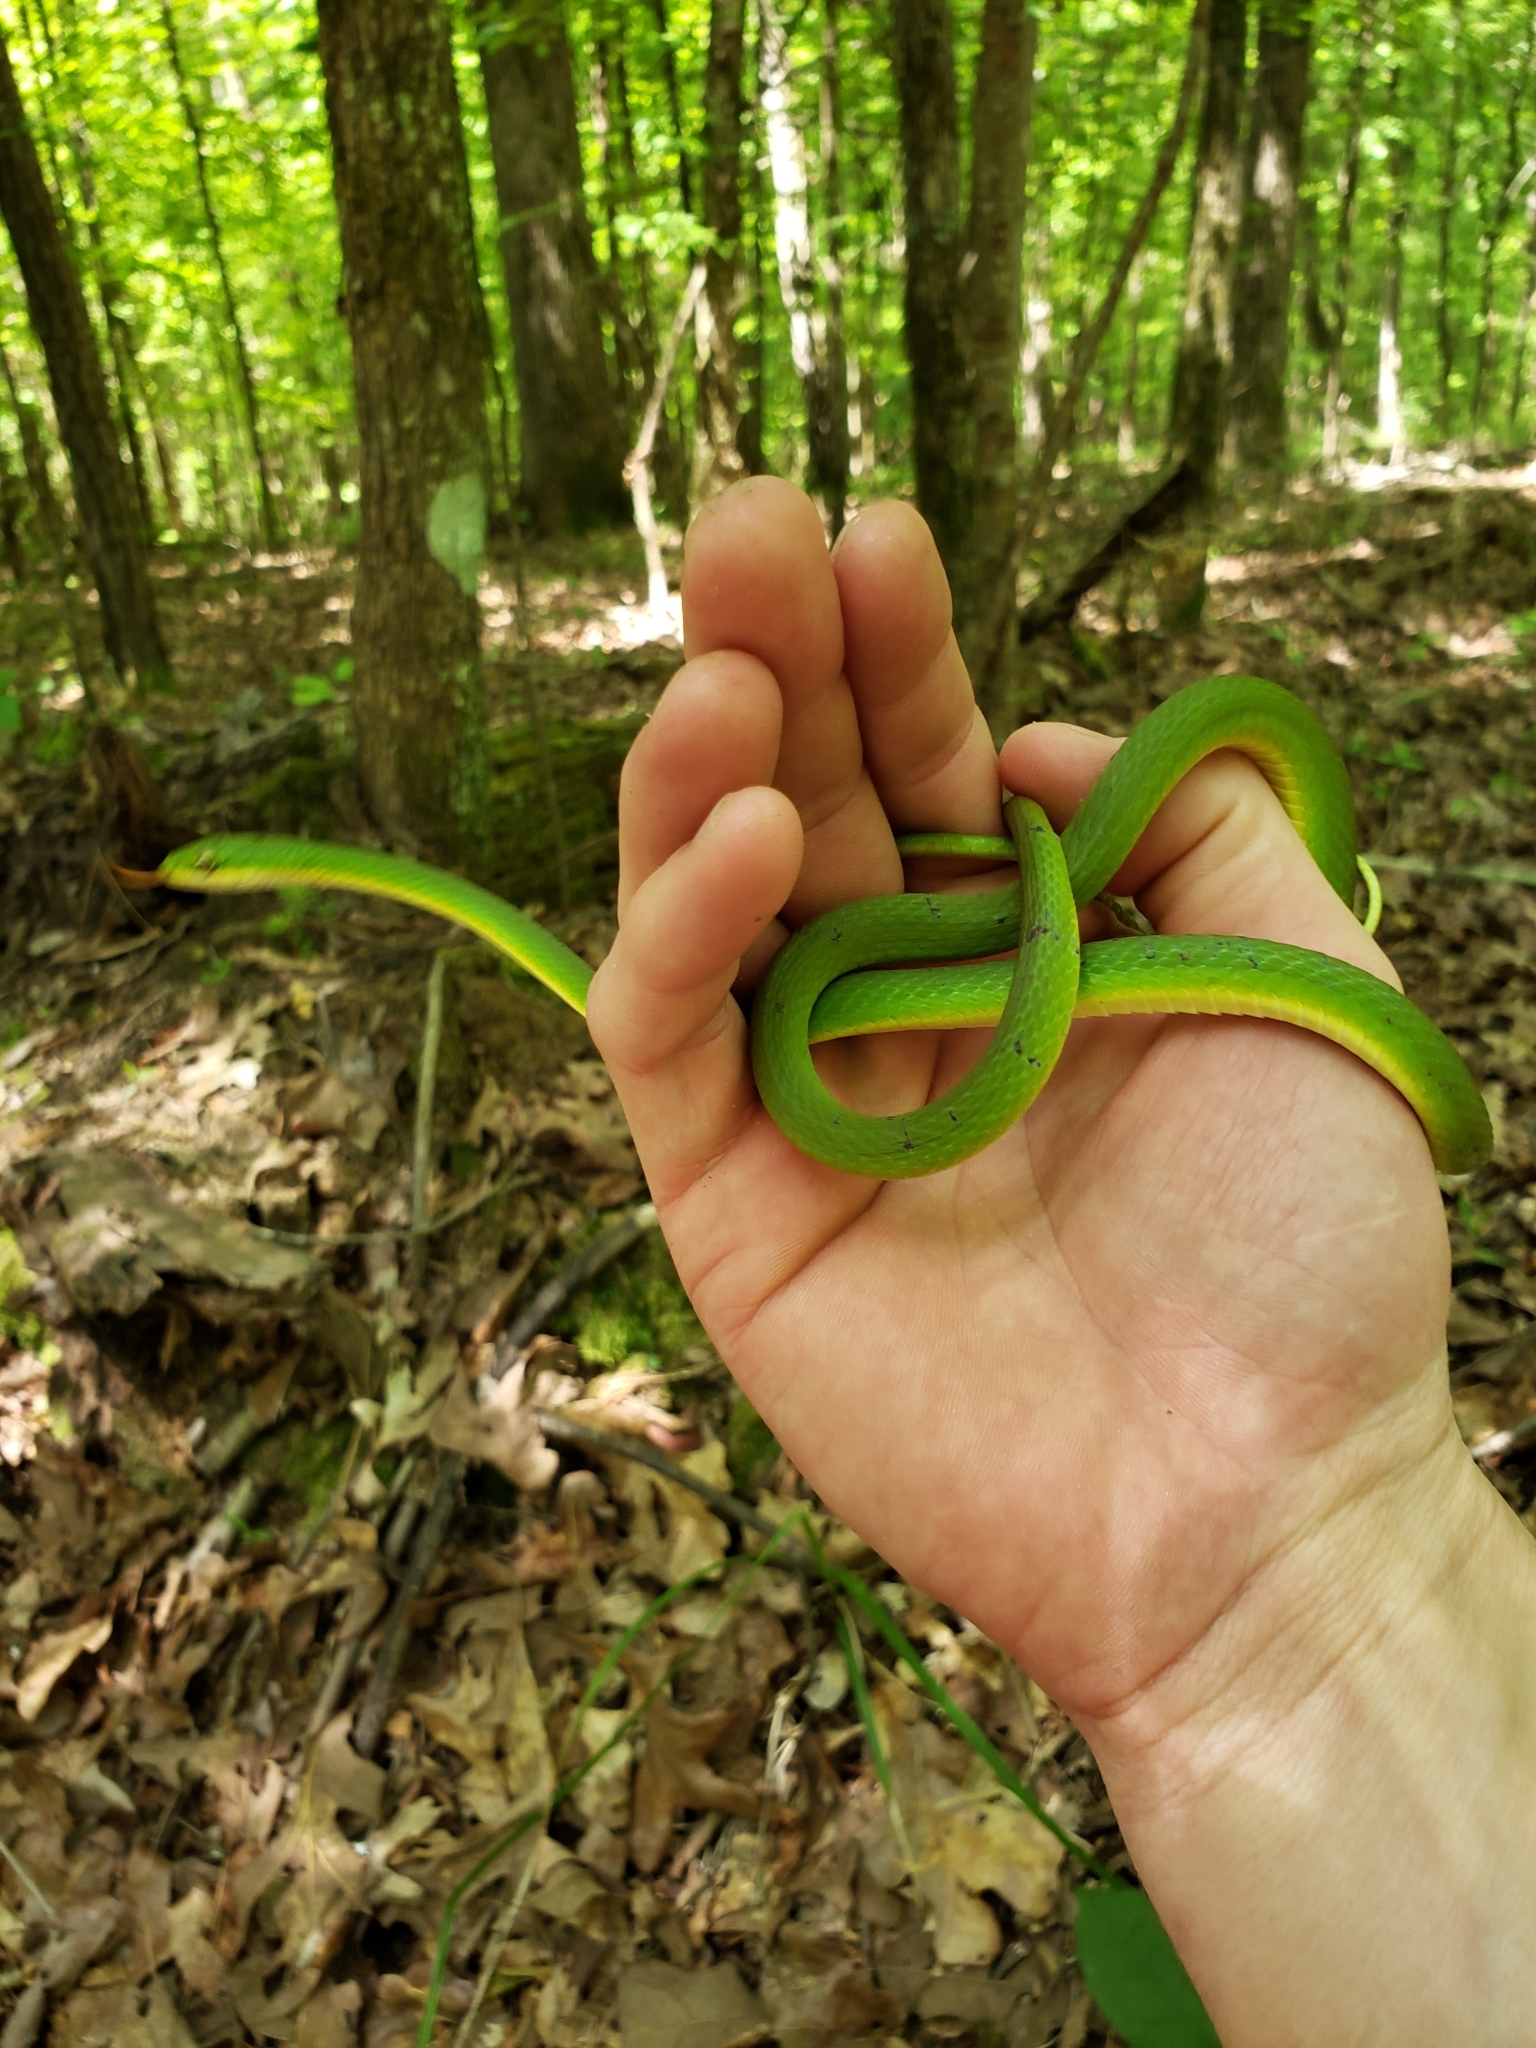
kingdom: Animalia
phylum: Chordata
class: Squamata
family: Colubridae
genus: Opheodrys
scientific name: Opheodrys aestivus
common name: Rough greensnake
